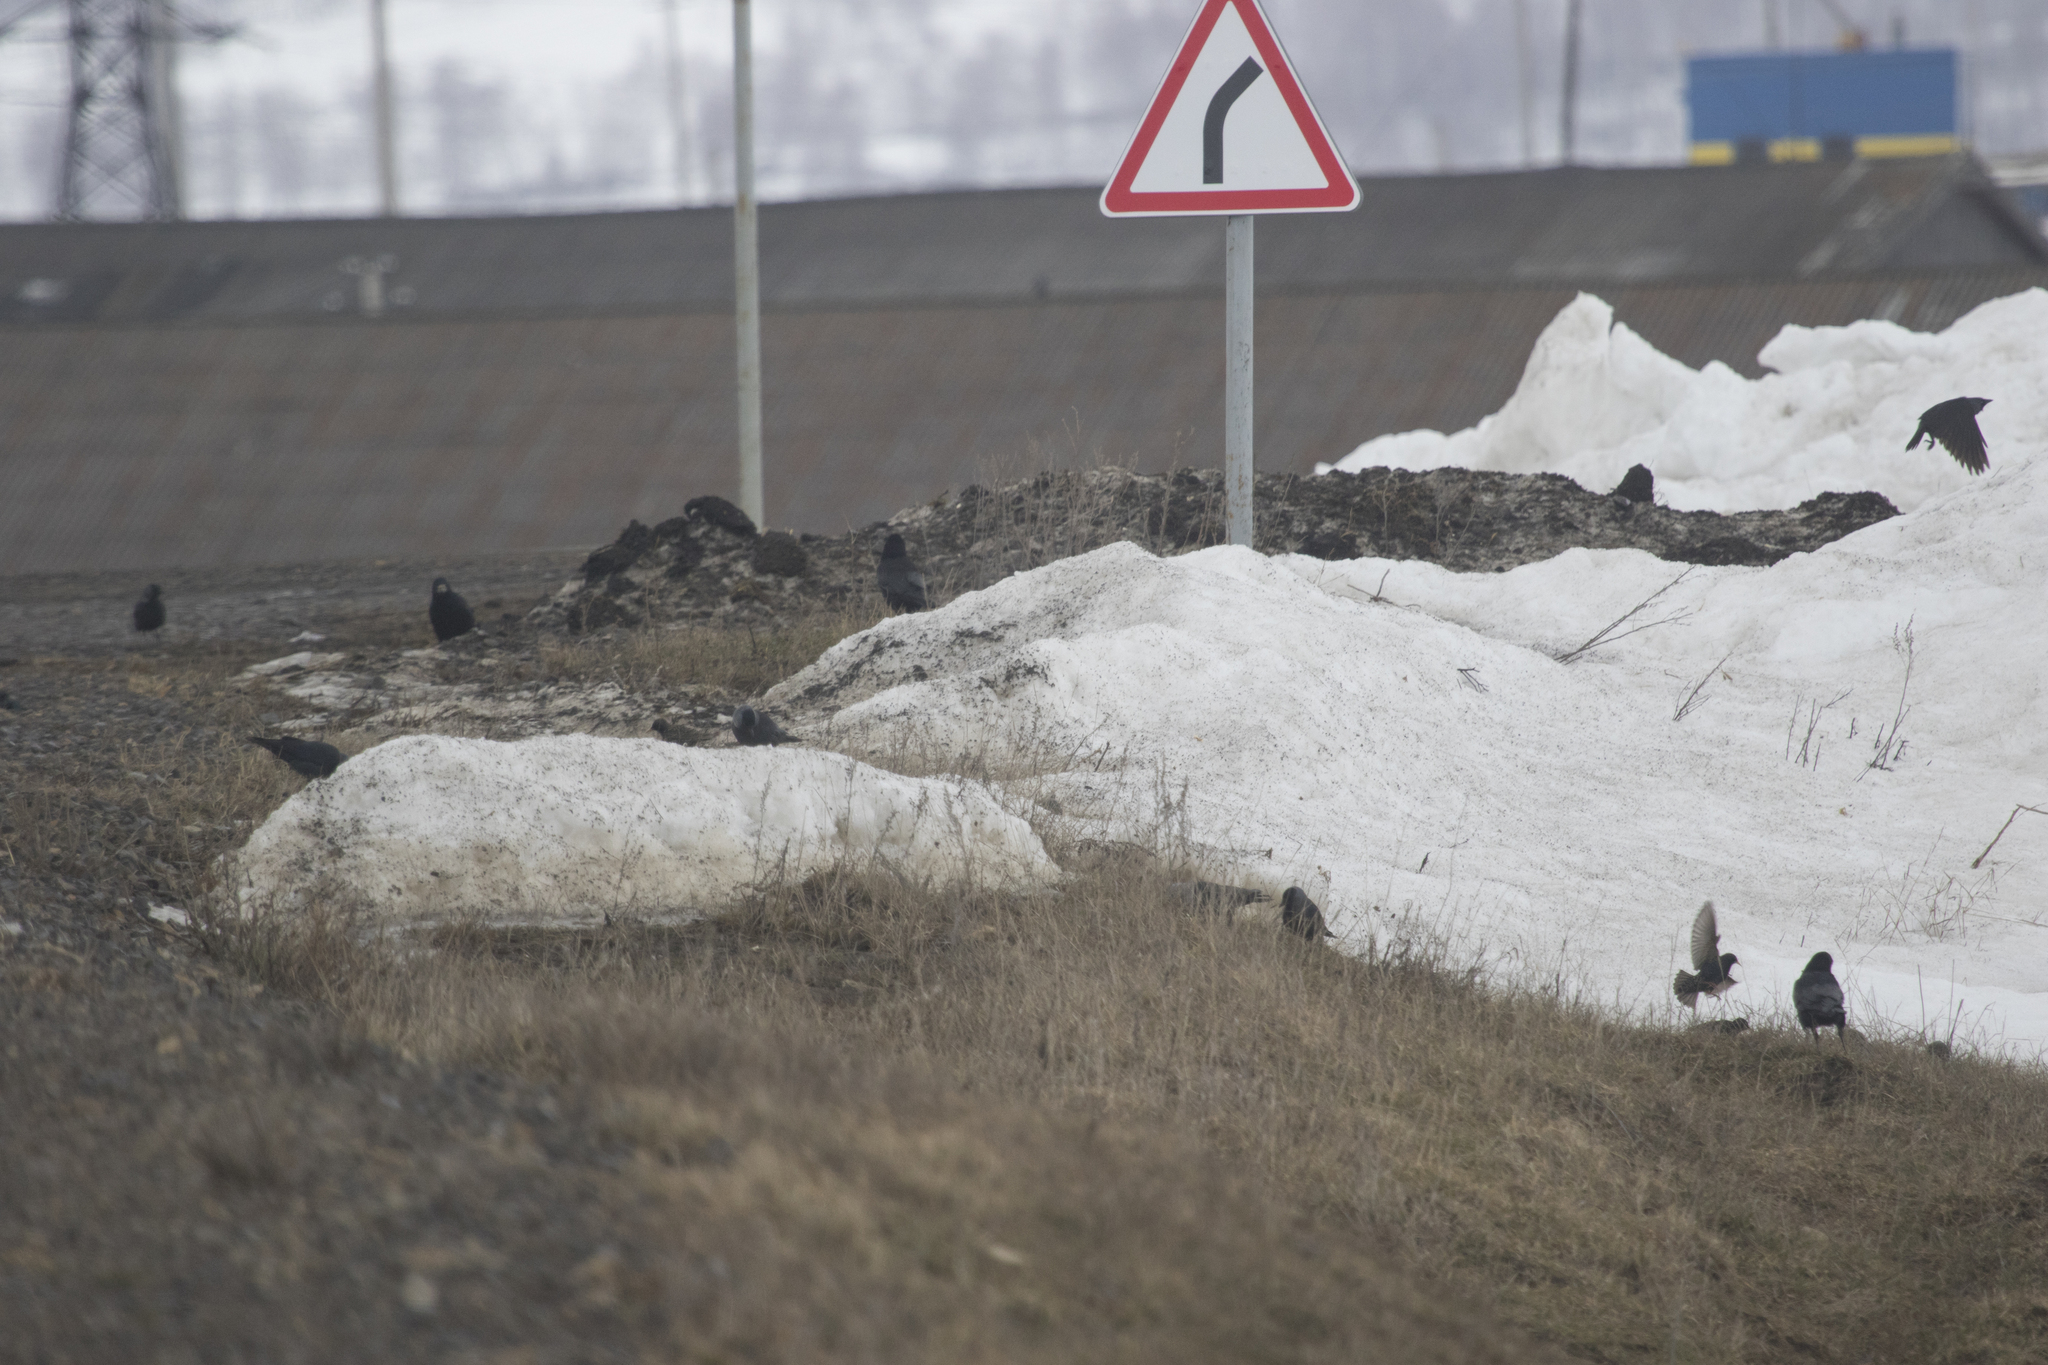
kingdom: Animalia
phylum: Chordata
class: Aves
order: Passeriformes
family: Sturnidae
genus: Sturnus
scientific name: Sturnus vulgaris
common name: Common starling
